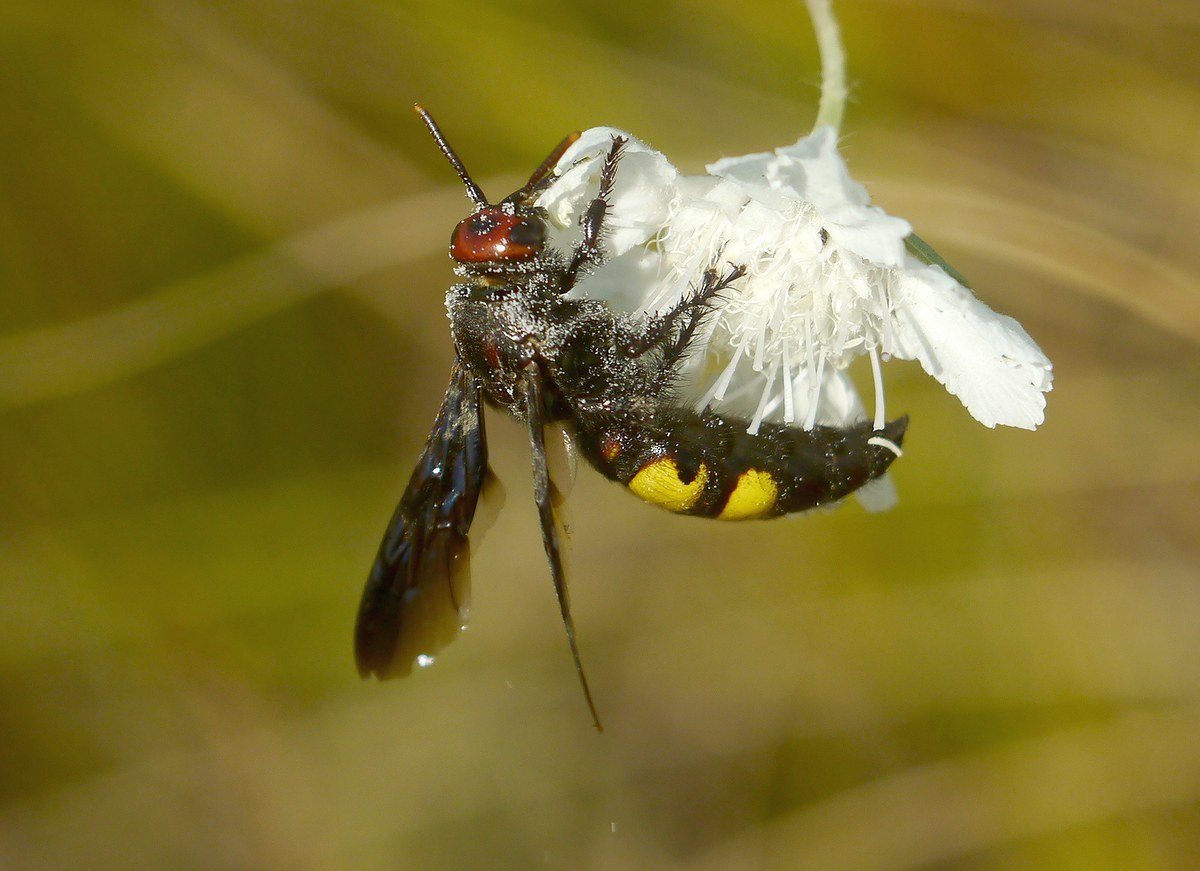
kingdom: Animalia
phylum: Arthropoda
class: Insecta
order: Hymenoptera
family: Vespidae
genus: Vespa
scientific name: Vespa galbula
